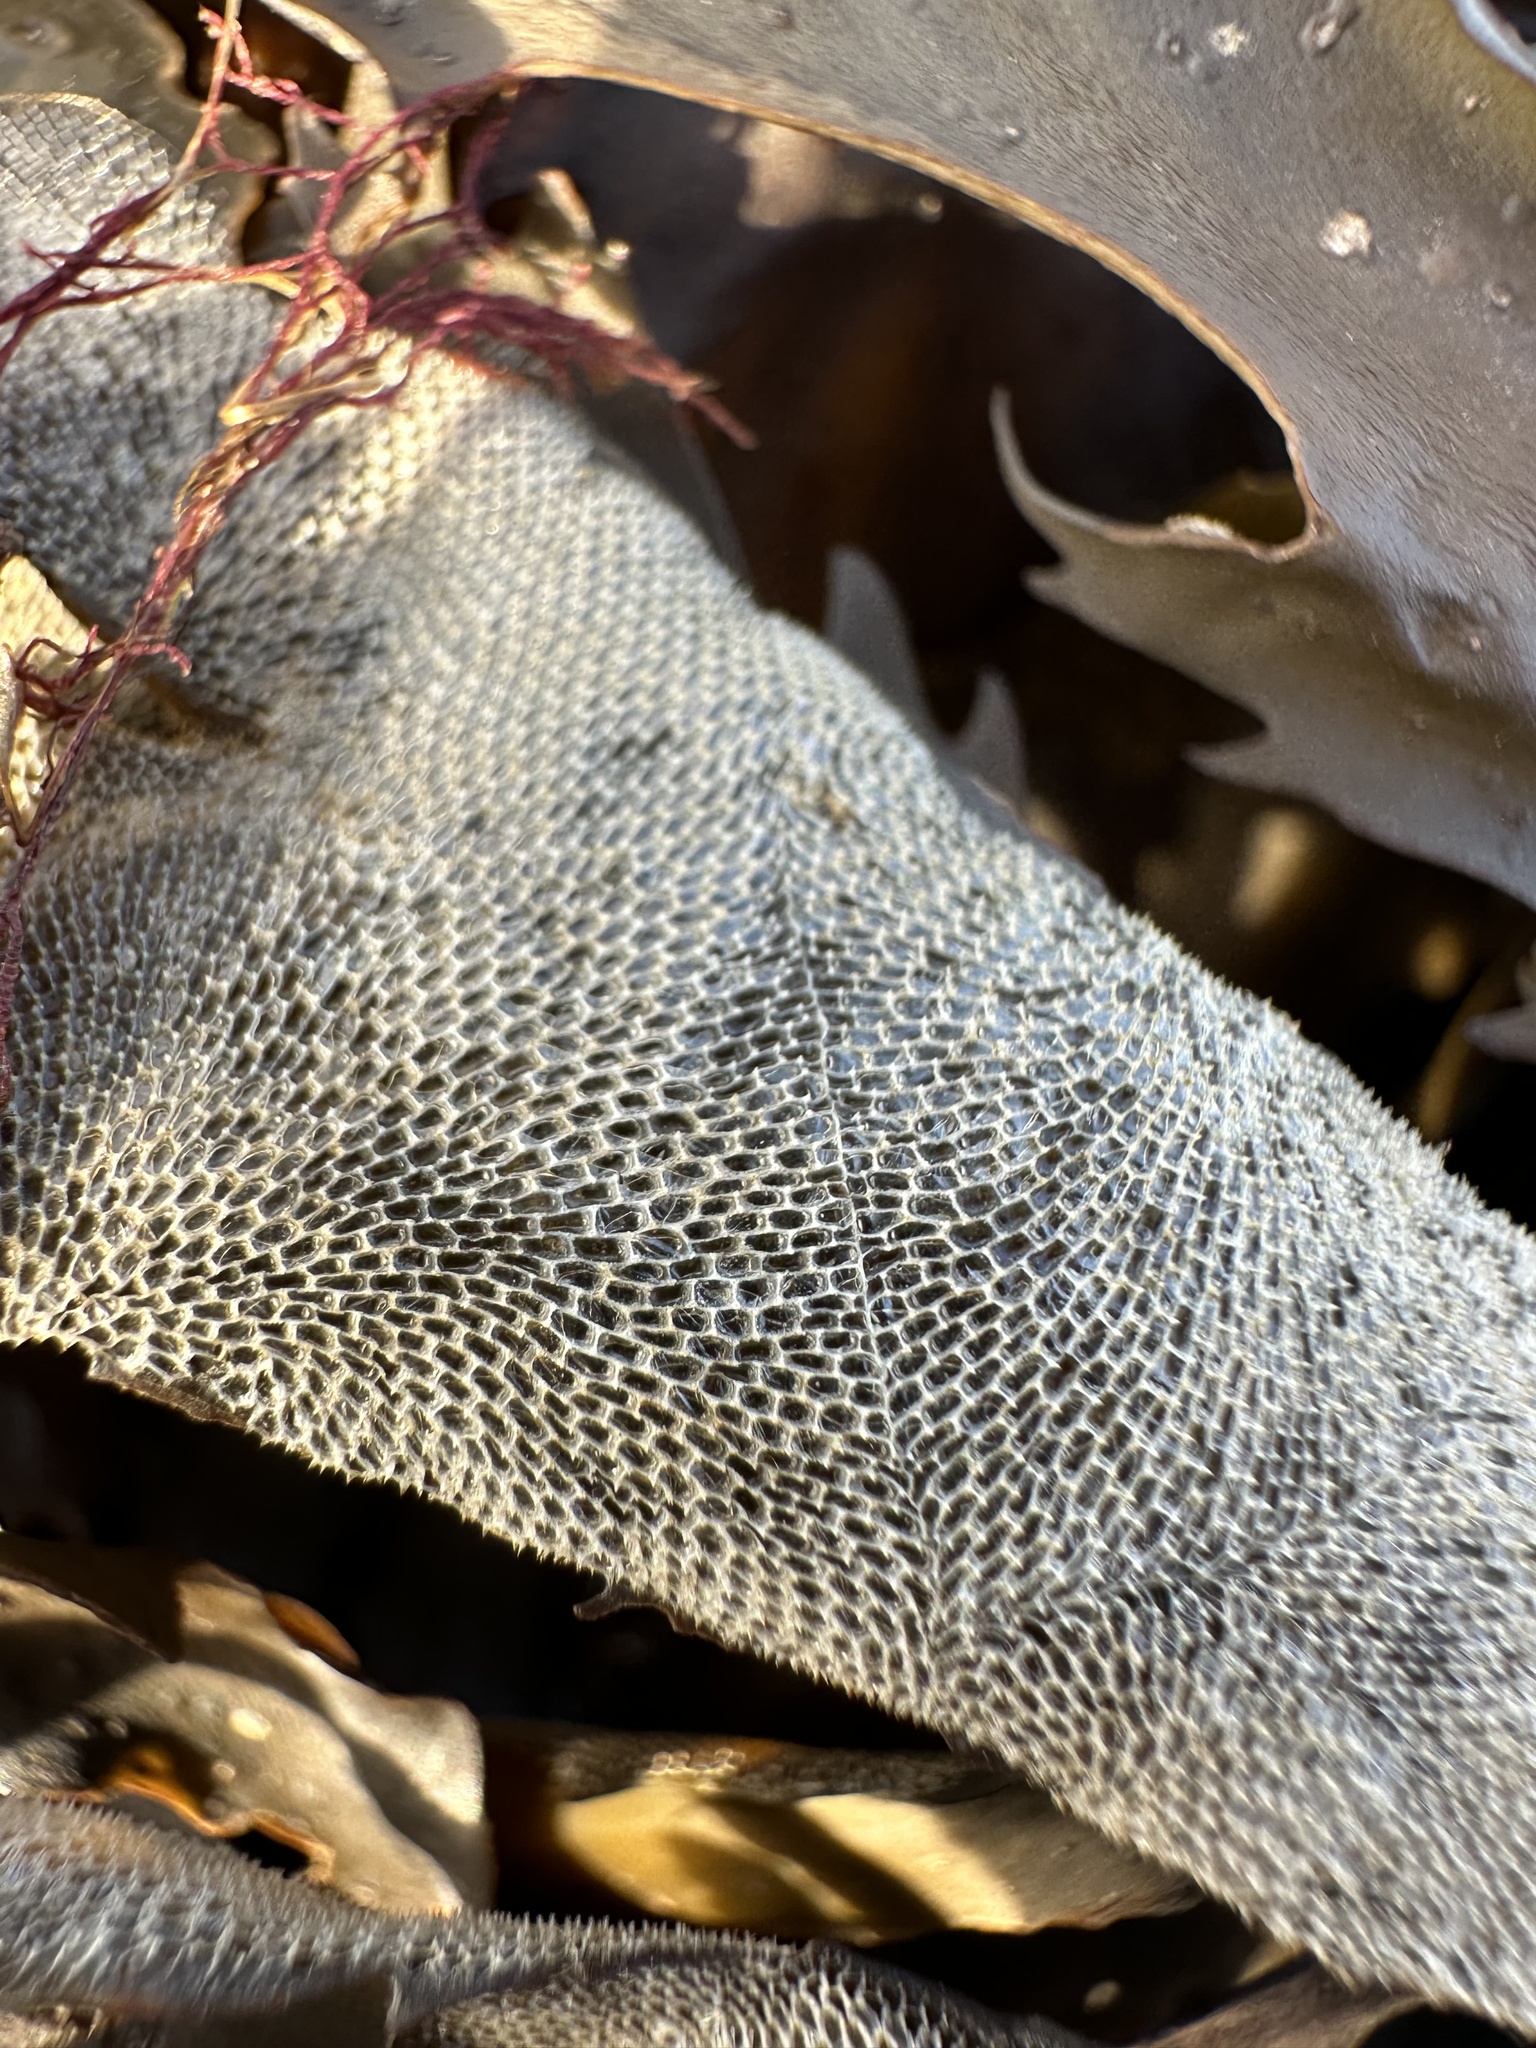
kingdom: Animalia
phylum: Bryozoa
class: Gymnolaemata
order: Cheilostomatida
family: Membraniporidae
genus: Membranipora
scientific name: Membranipora membranacea
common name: Sea mat
